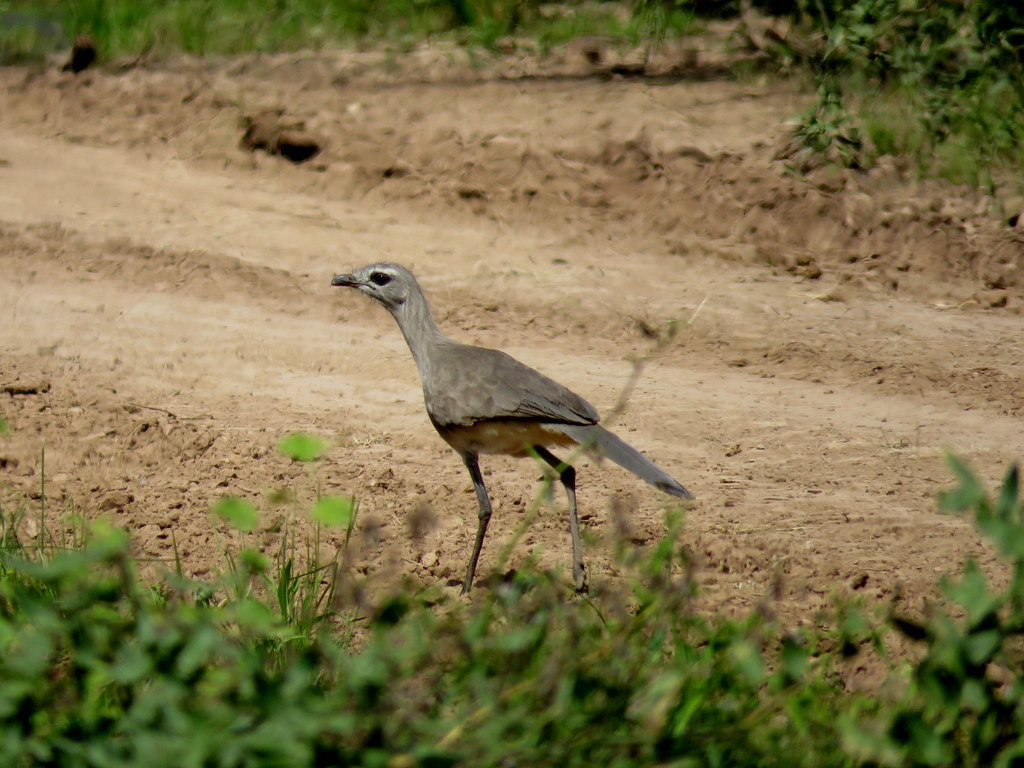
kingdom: Animalia
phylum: Chordata
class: Aves
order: Cariamiformes
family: Cariamidae
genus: Chunga
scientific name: Chunga burmeisteri
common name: Black-legged seriema
